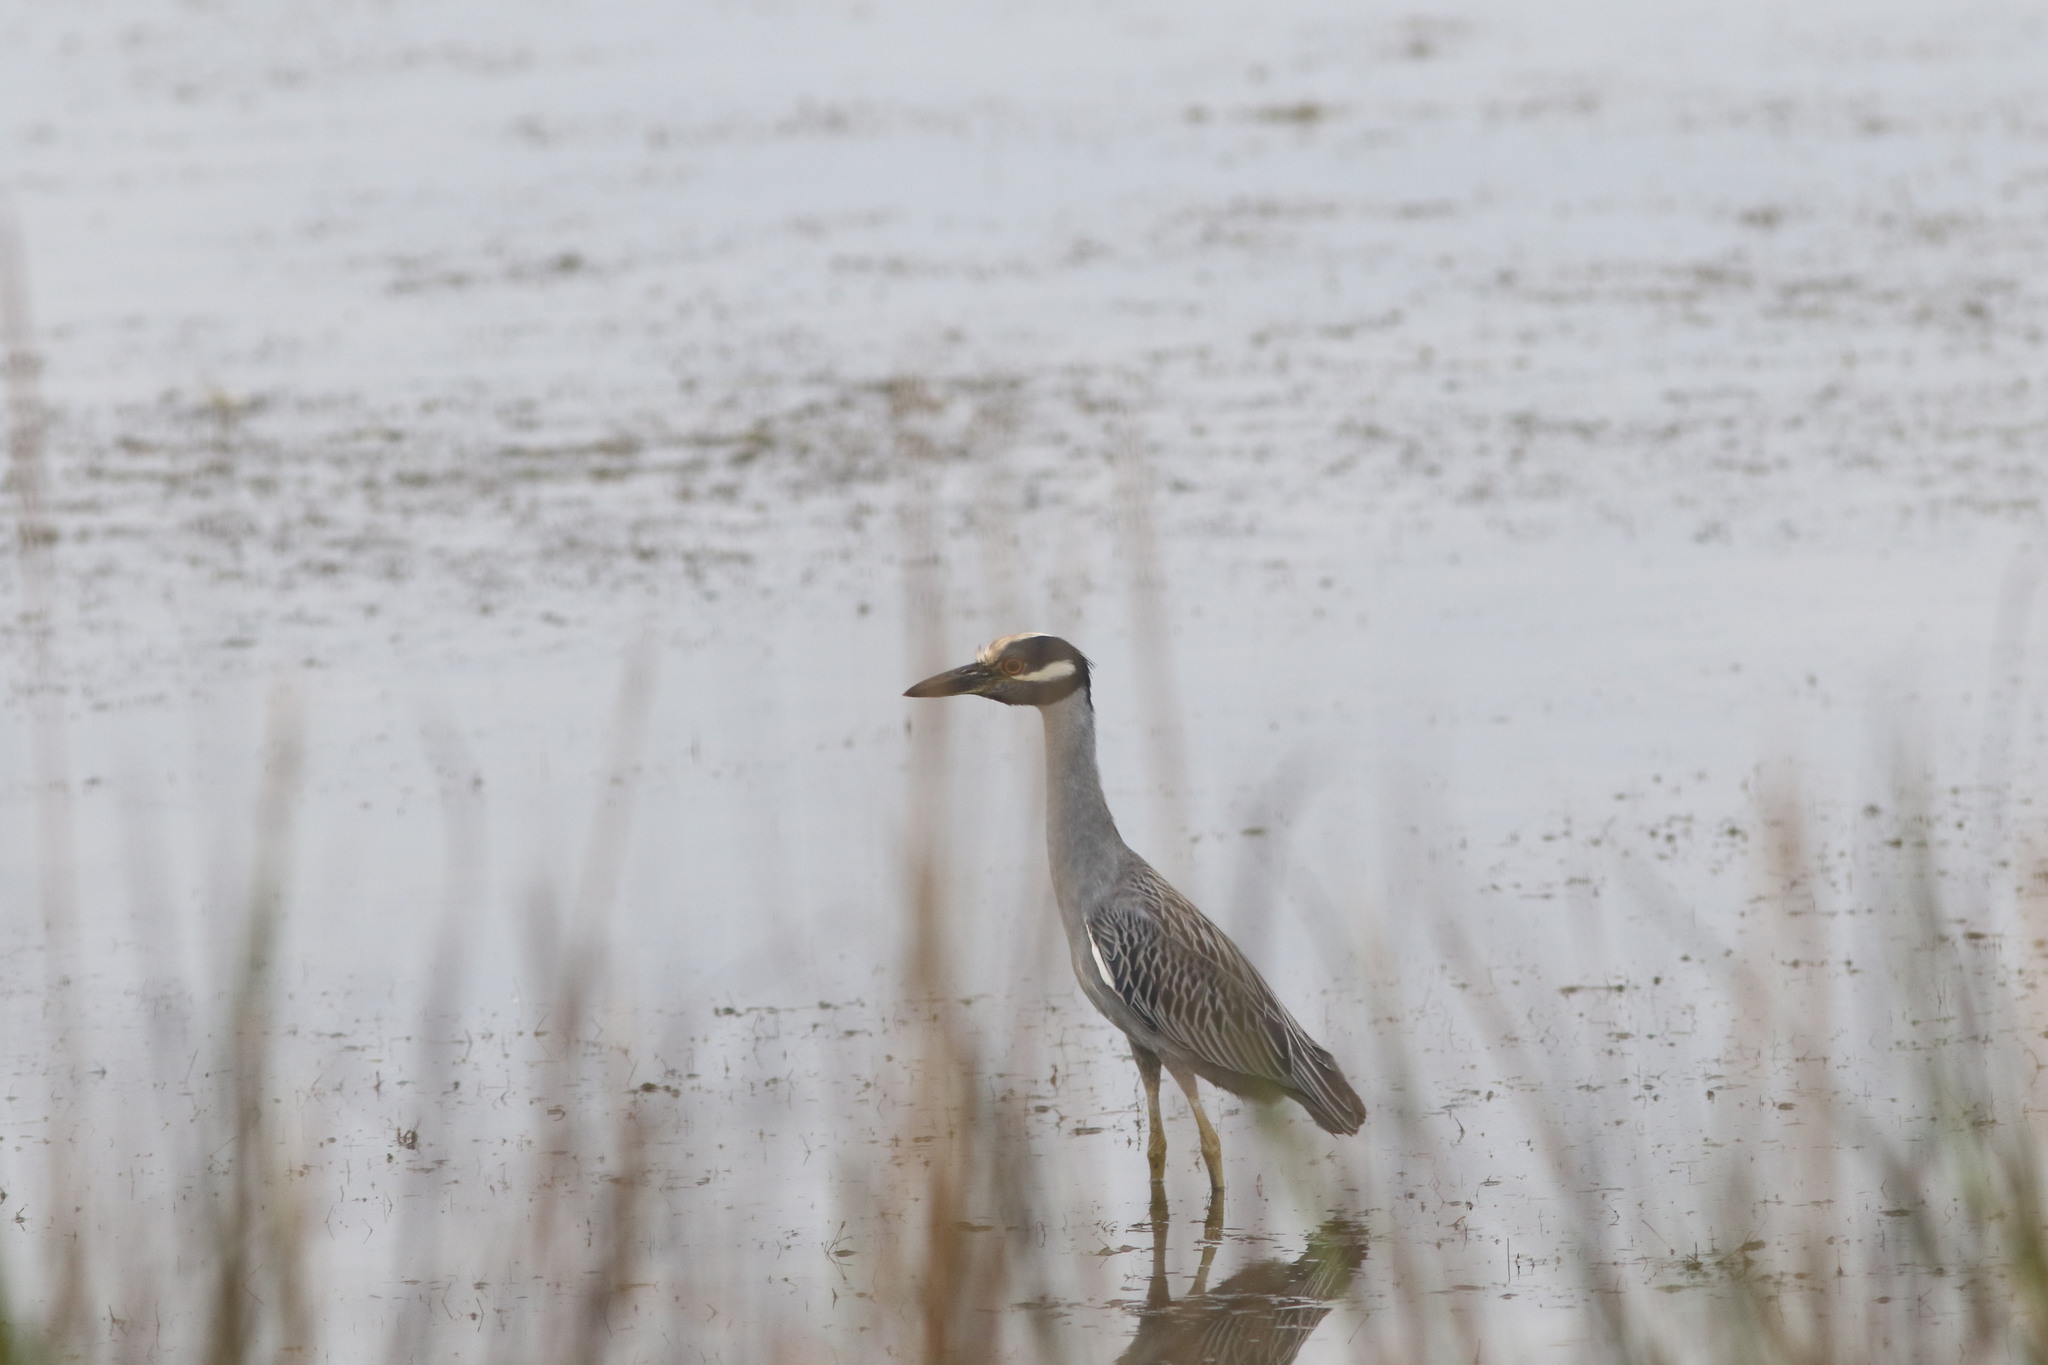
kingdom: Animalia
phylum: Chordata
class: Aves
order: Pelecaniformes
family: Ardeidae
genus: Nyctanassa
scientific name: Nyctanassa violacea
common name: Yellow-crowned night heron
